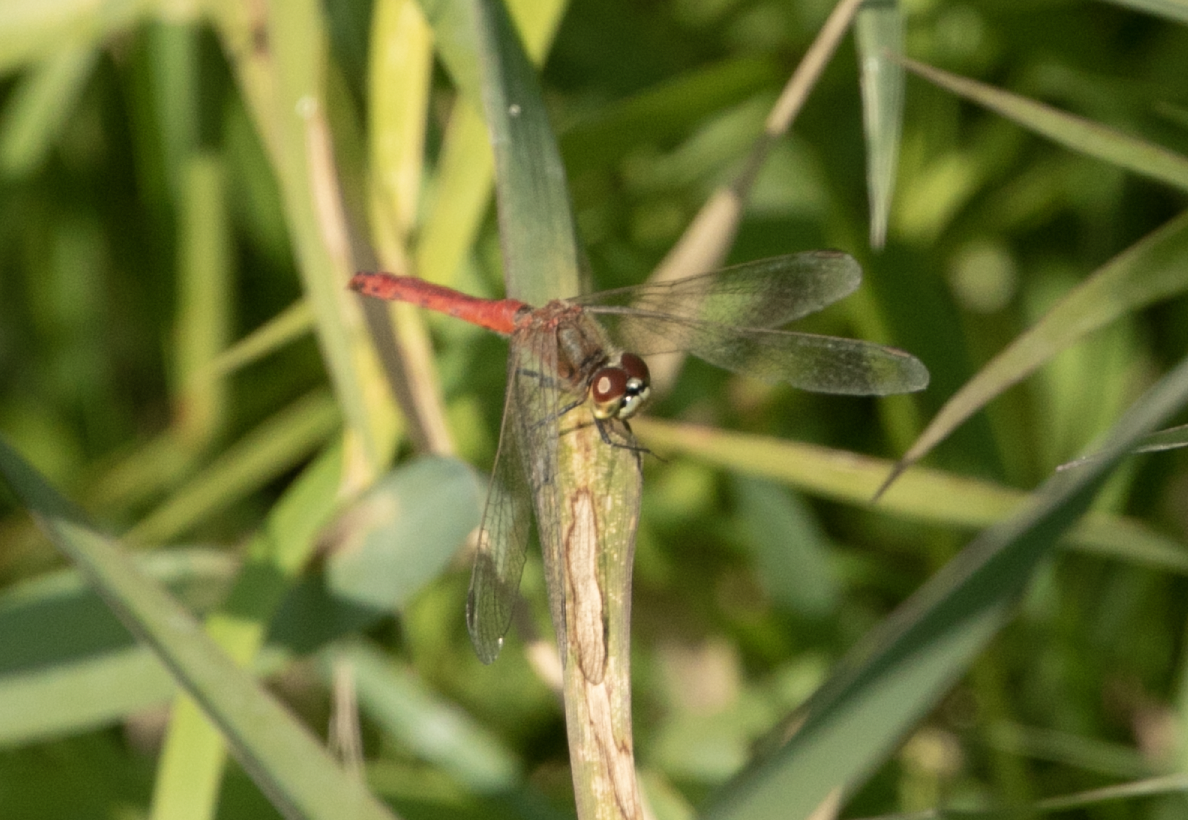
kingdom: Animalia
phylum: Arthropoda
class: Insecta
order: Odonata
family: Libellulidae
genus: Sympetrum
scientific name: Sympetrum depressiusculum
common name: Spotted darter
